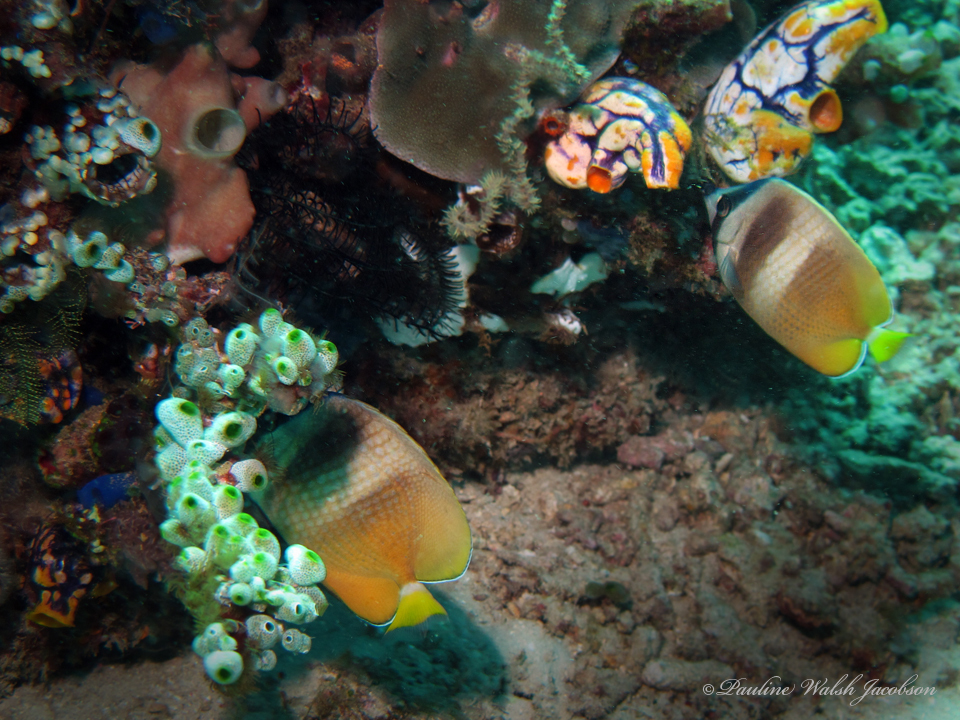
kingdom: Animalia
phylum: Chordata
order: Perciformes
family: Chaetodontidae
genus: Chaetodon
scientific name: Chaetodon kleinii
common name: Klein's butterflyfish
